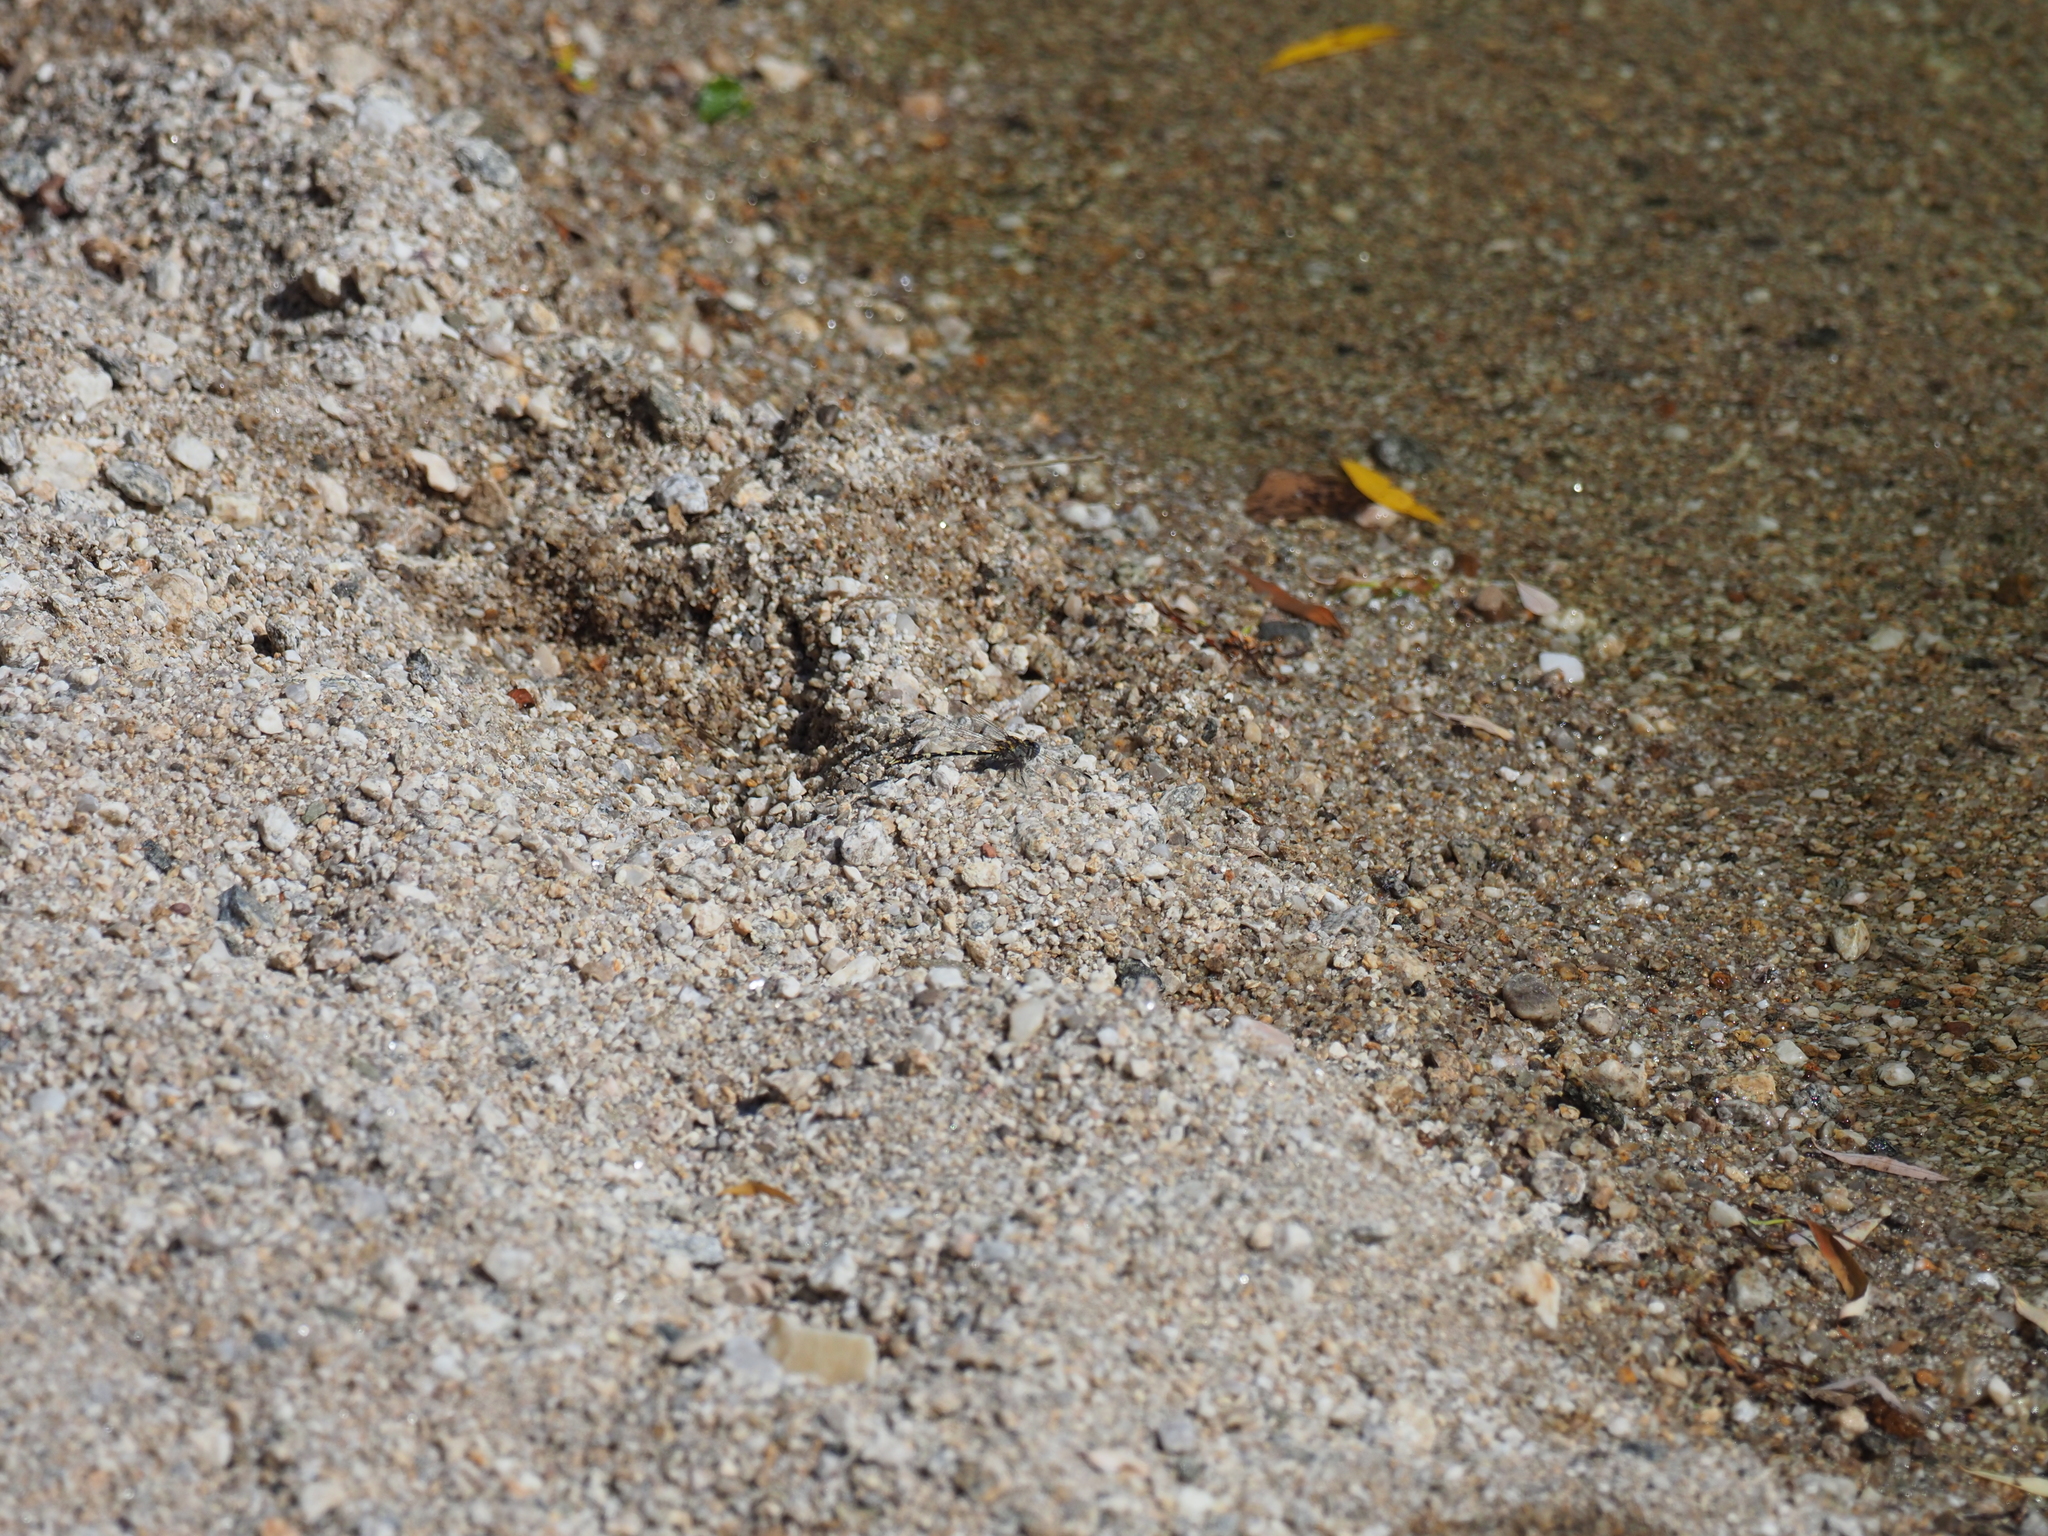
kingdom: Animalia
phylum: Arthropoda
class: Insecta
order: Odonata
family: Gomphidae
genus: Progomphus
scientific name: Progomphus borealis
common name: Gray sanddragon
